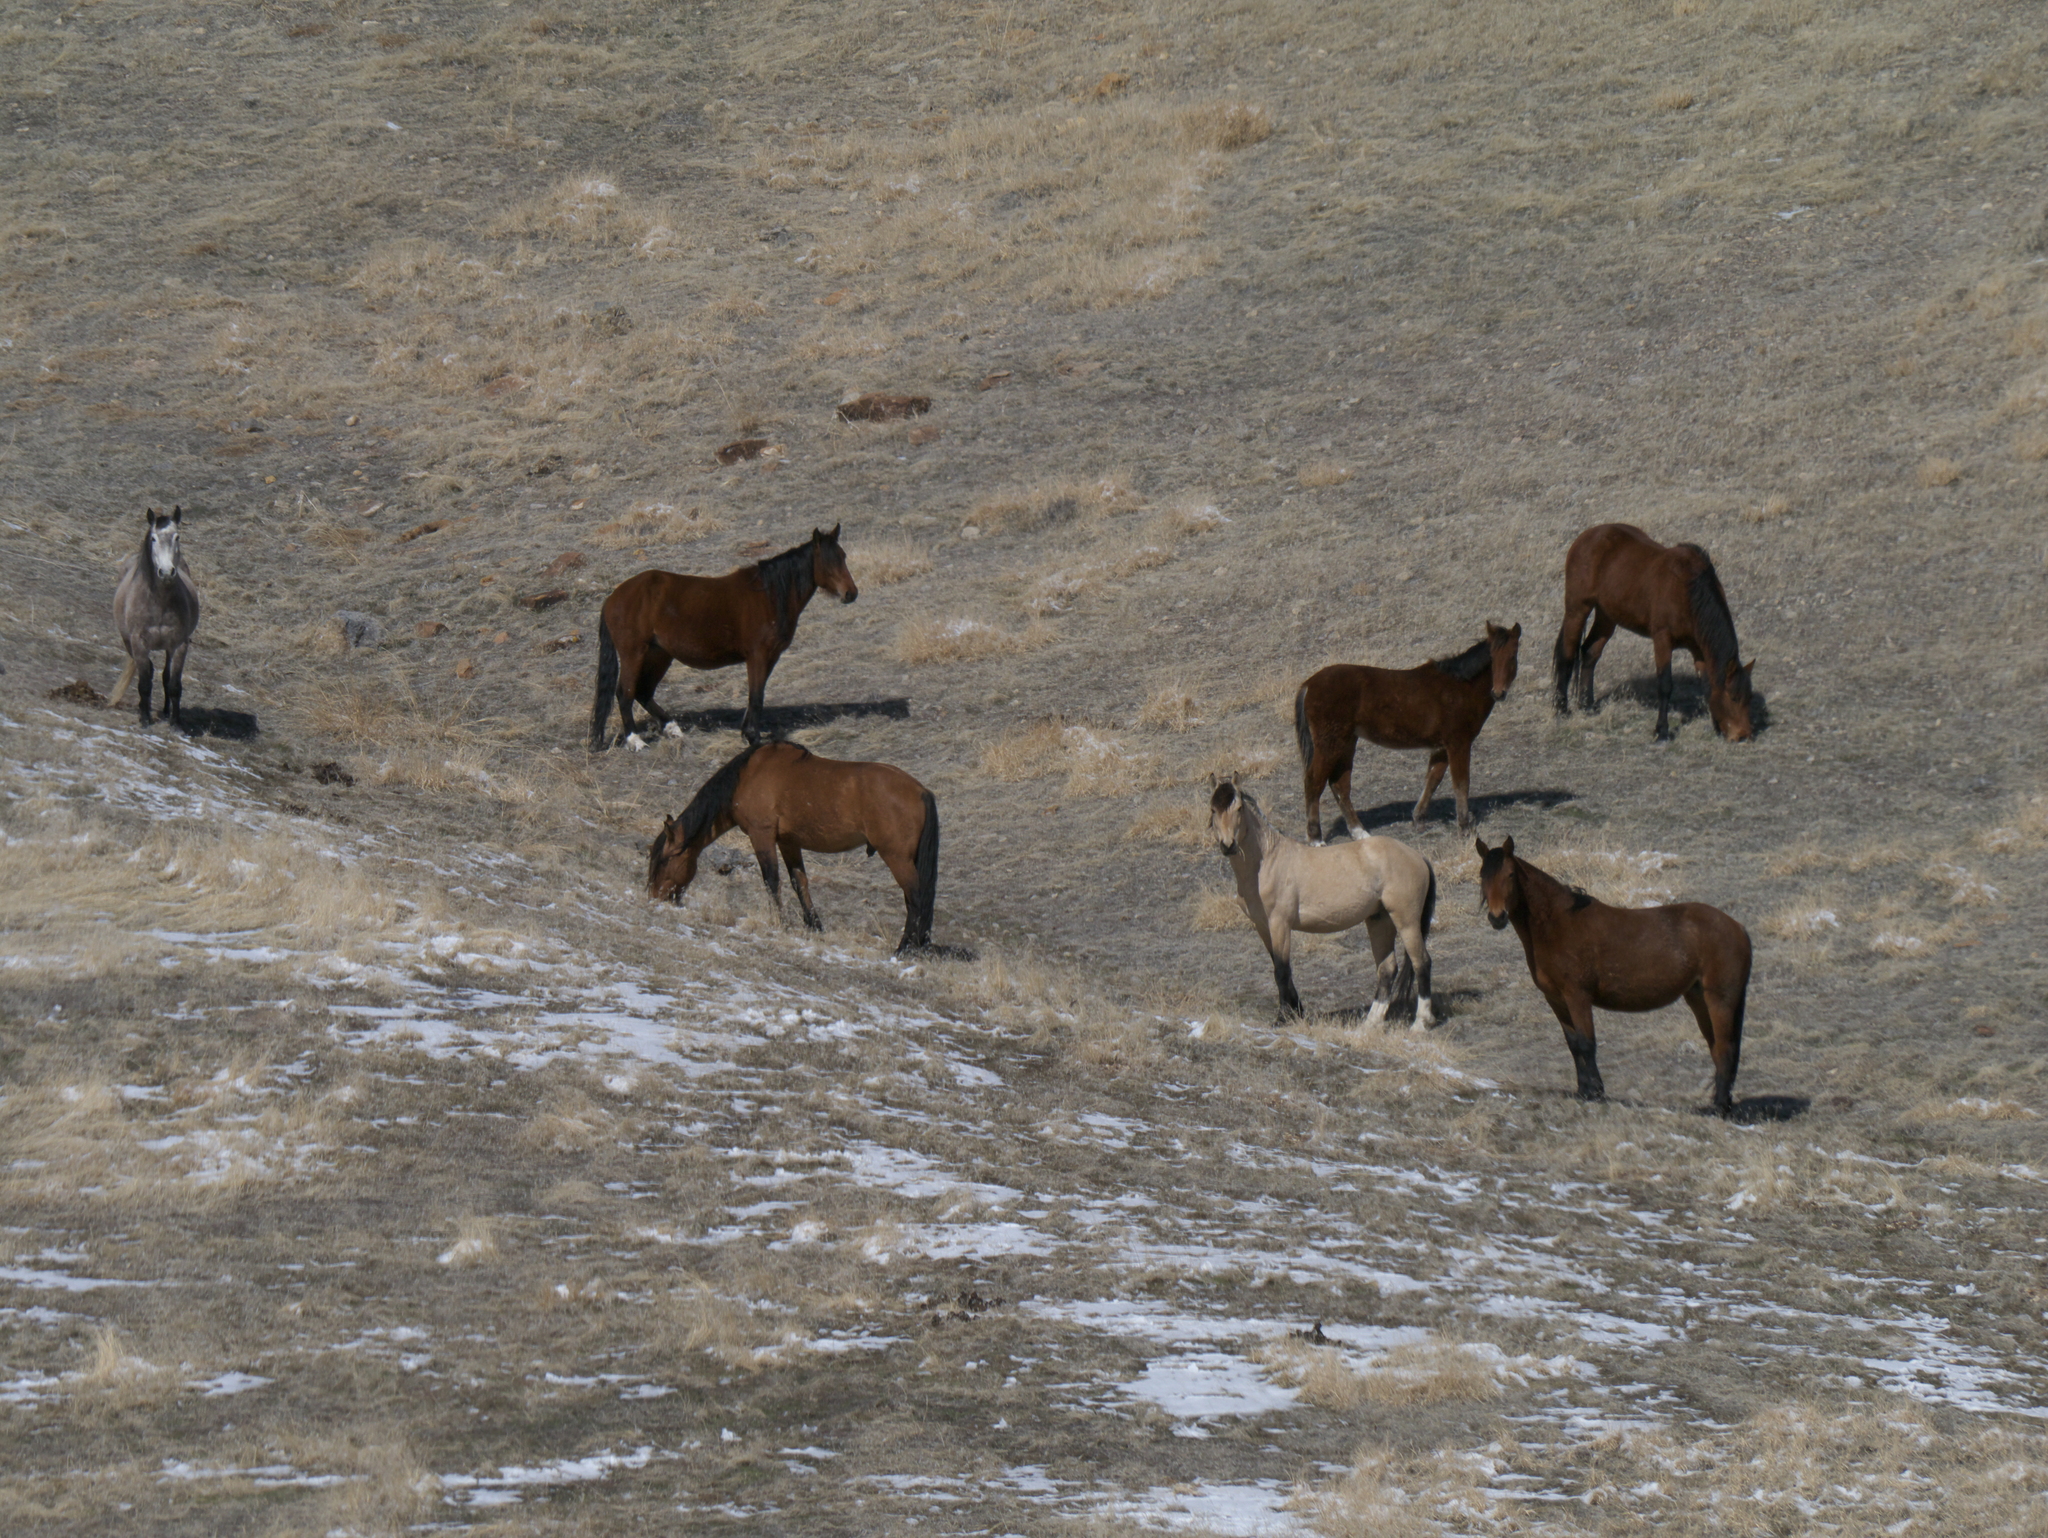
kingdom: Animalia
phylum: Chordata
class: Mammalia
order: Perissodactyla
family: Equidae
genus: Equus
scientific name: Equus caballus
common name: Horse
